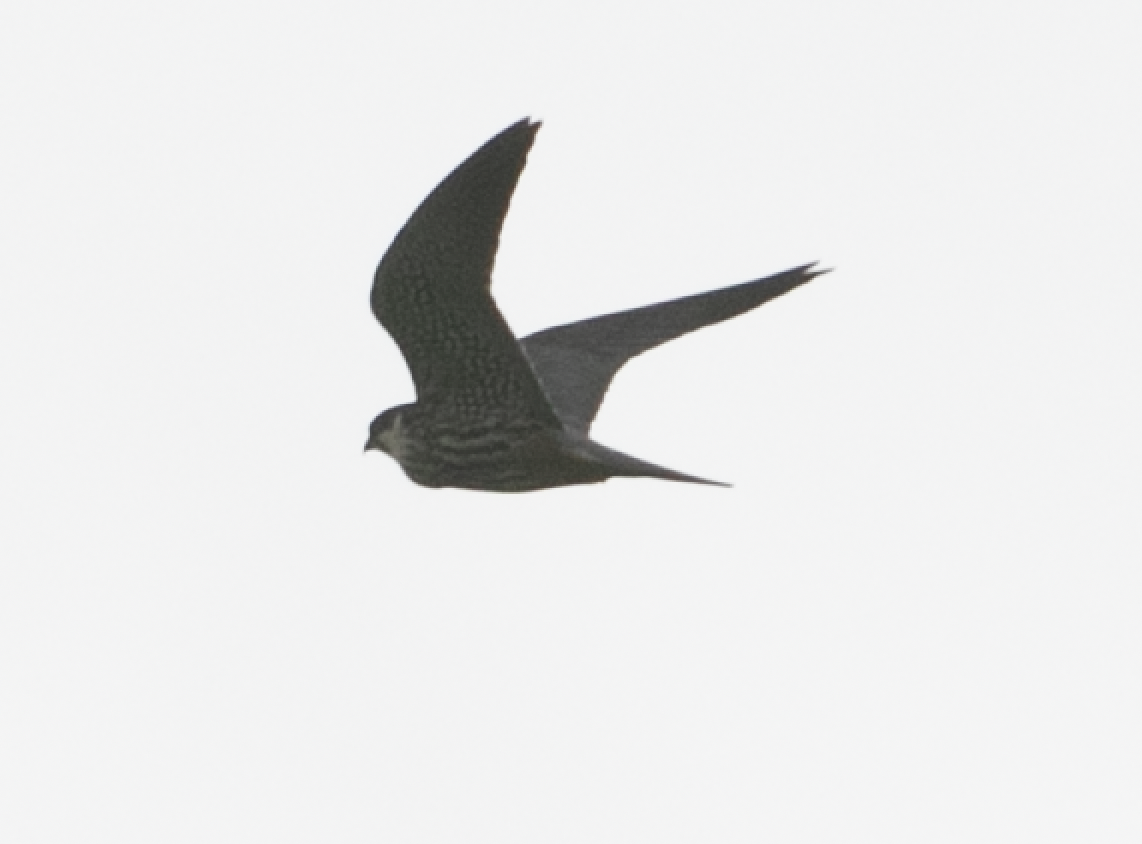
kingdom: Animalia
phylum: Chordata
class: Aves
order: Falconiformes
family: Falconidae
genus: Falco
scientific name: Falco subbuteo
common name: Eurasian hobby
